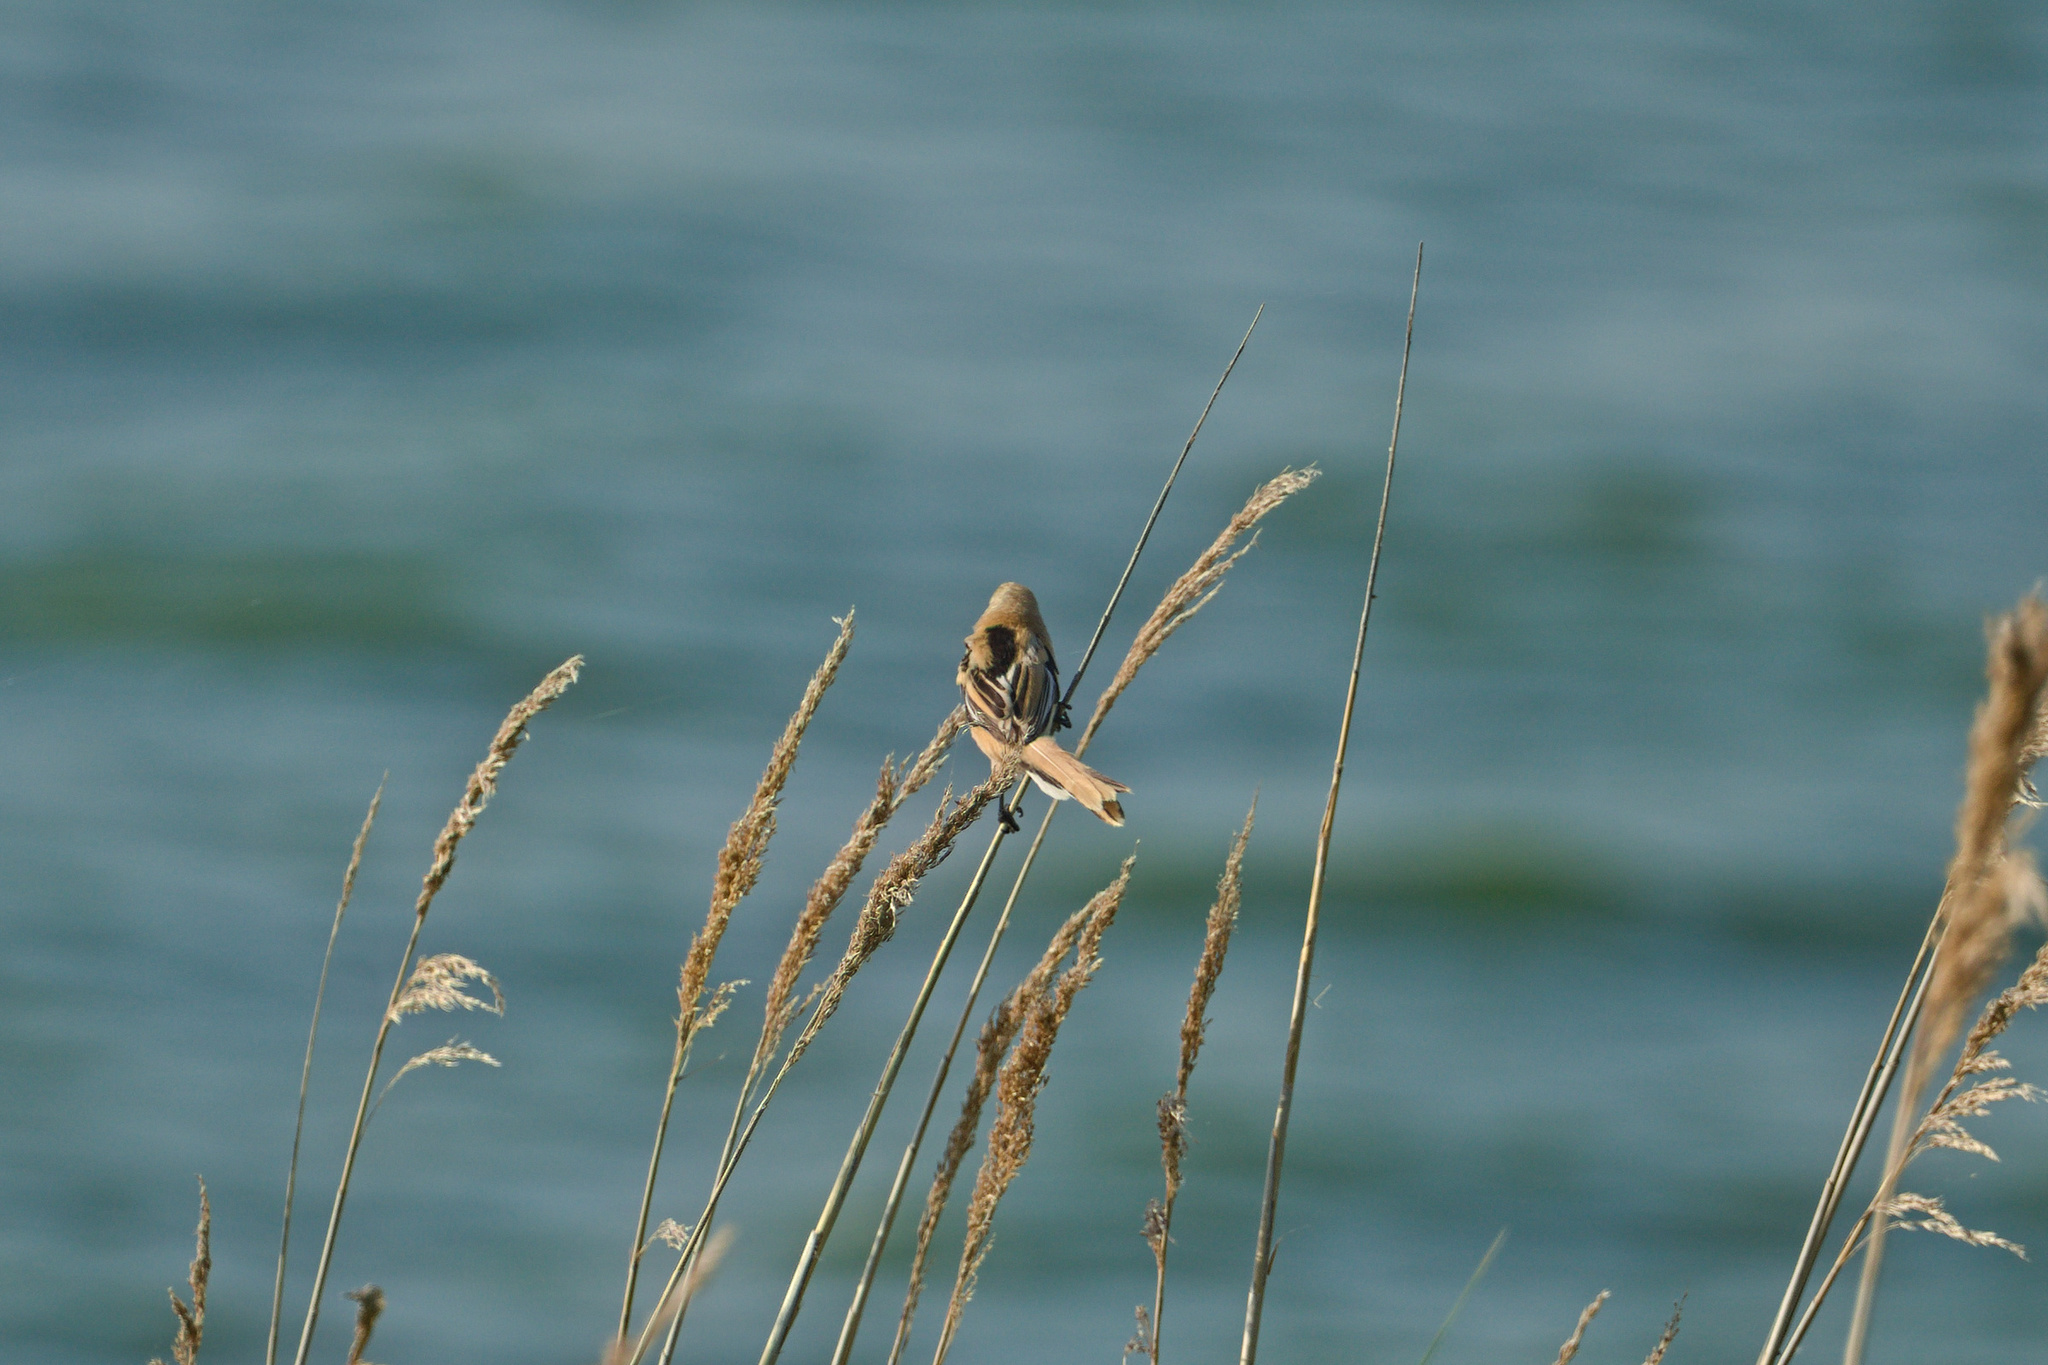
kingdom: Animalia
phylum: Chordata
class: Aves
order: Passeriformes
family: Panuridae
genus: Panurus
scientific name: Panurus biarmicus
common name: Bearded reedling
